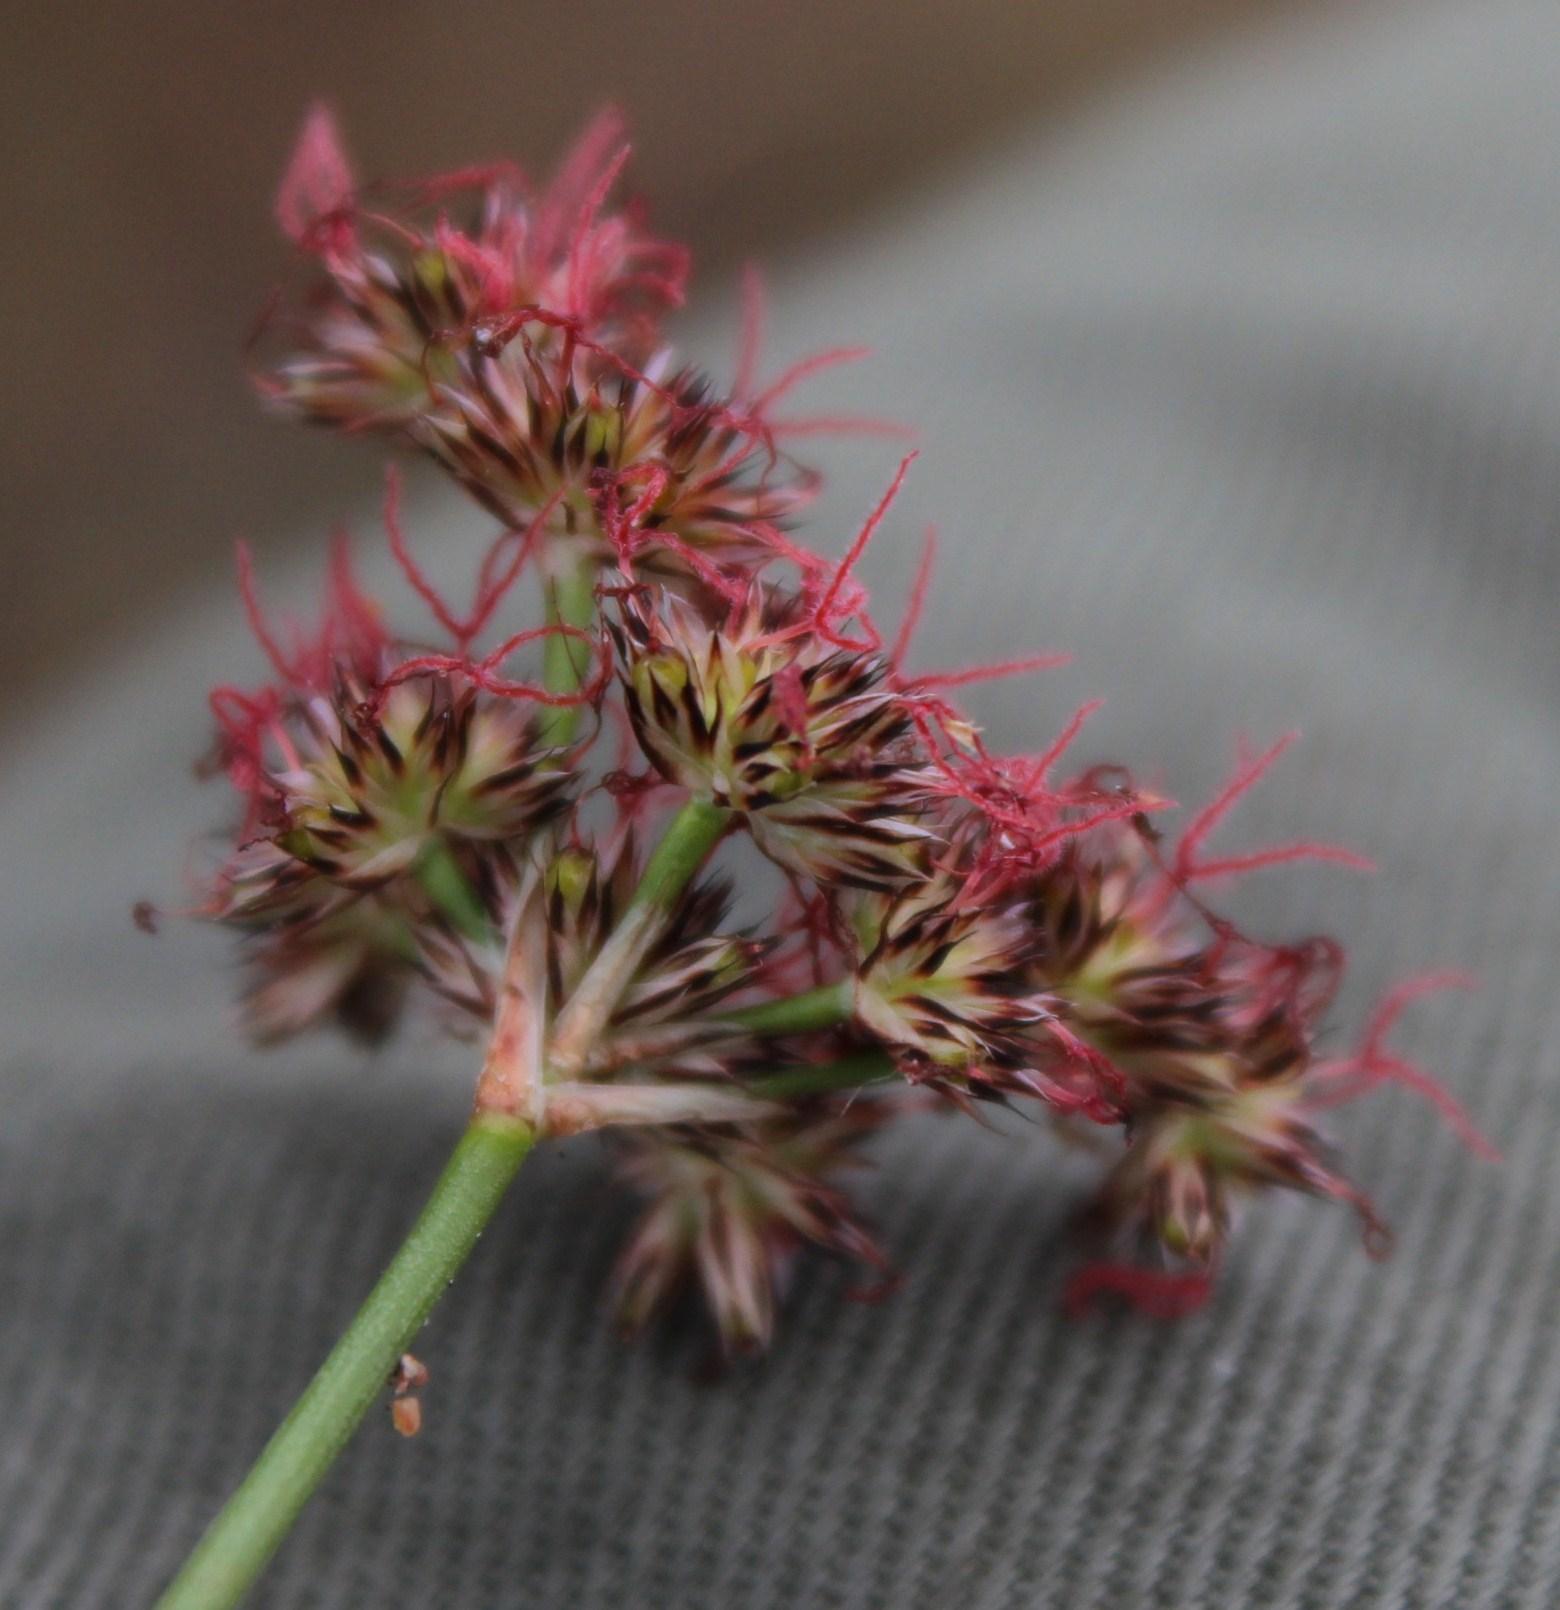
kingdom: Plantae
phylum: Tracheophyta
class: Liliopsida
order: Poales
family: Juncaceae
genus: Juncus
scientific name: Juncus cephalotes
